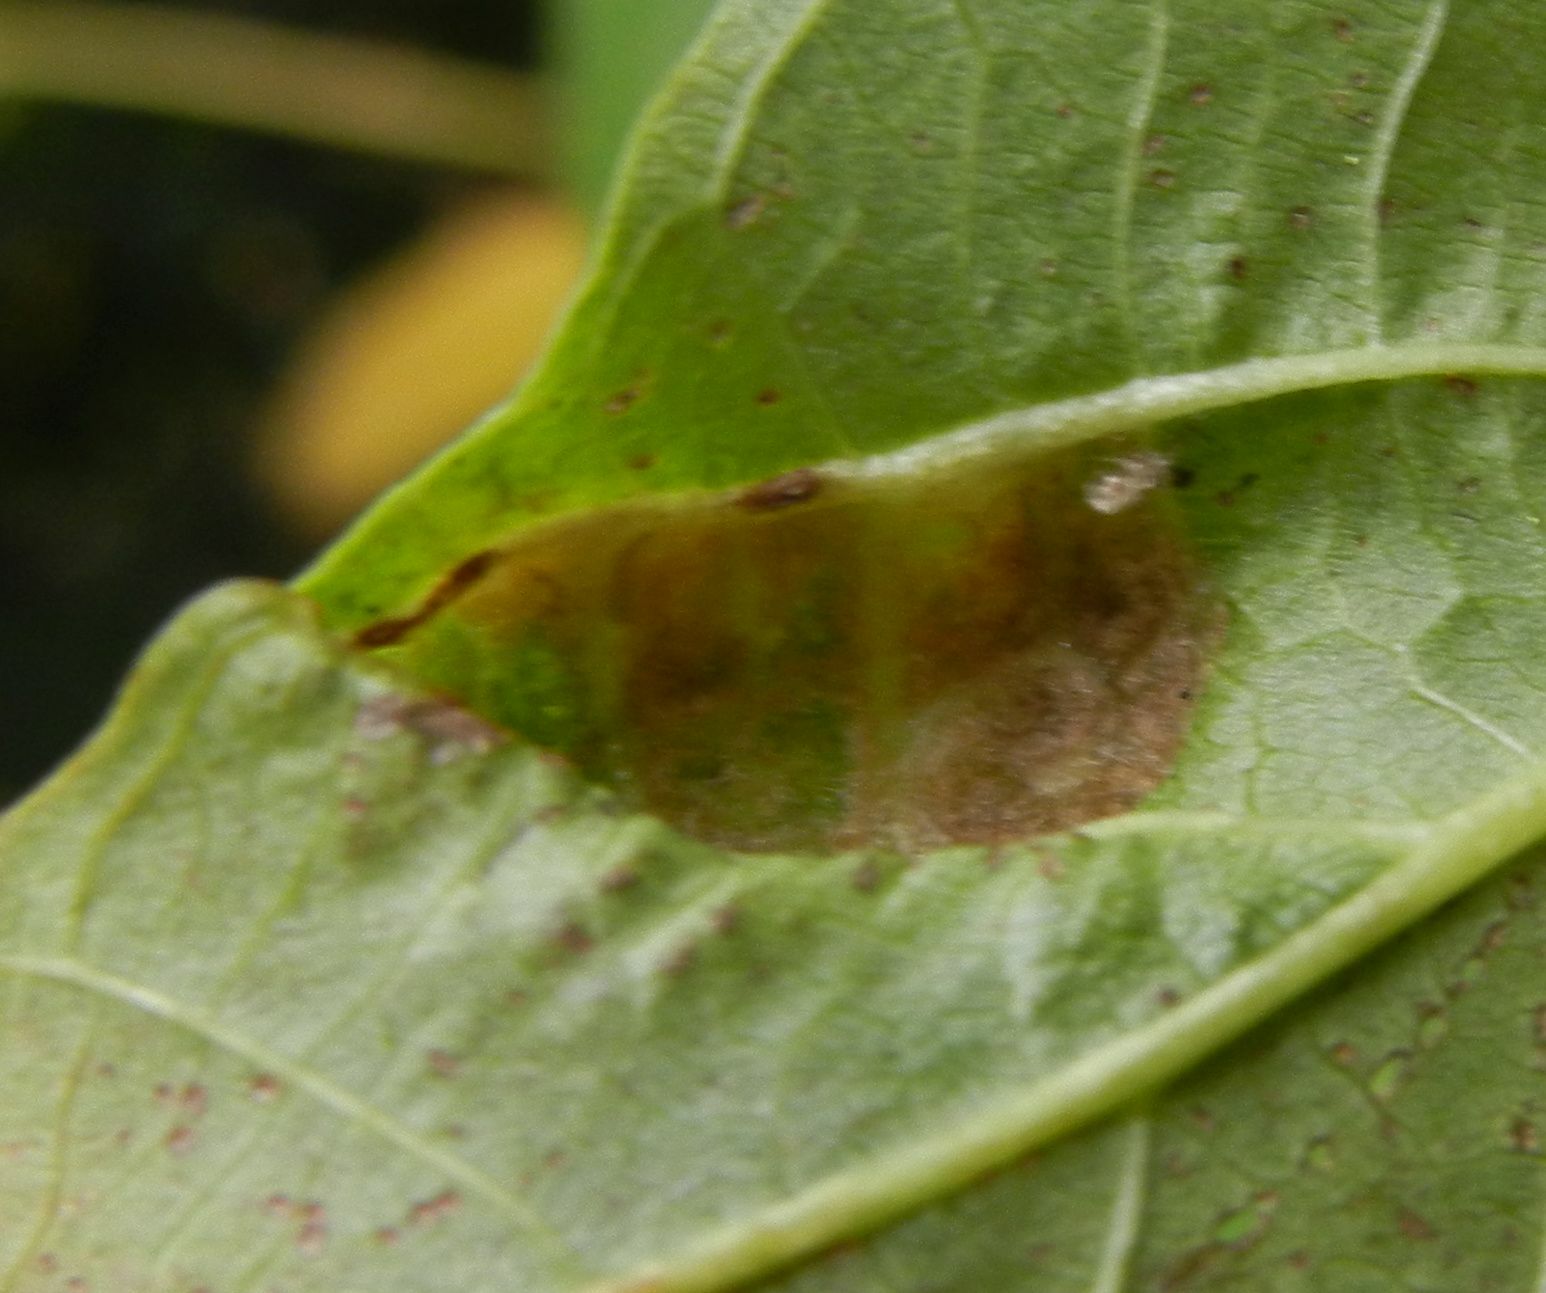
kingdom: Animalia
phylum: Arthropoda
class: Arachnida
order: Trombidiformes
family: Eriophyidae
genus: Aceria
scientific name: Aceria erinea
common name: Persian walnut erineum mite
